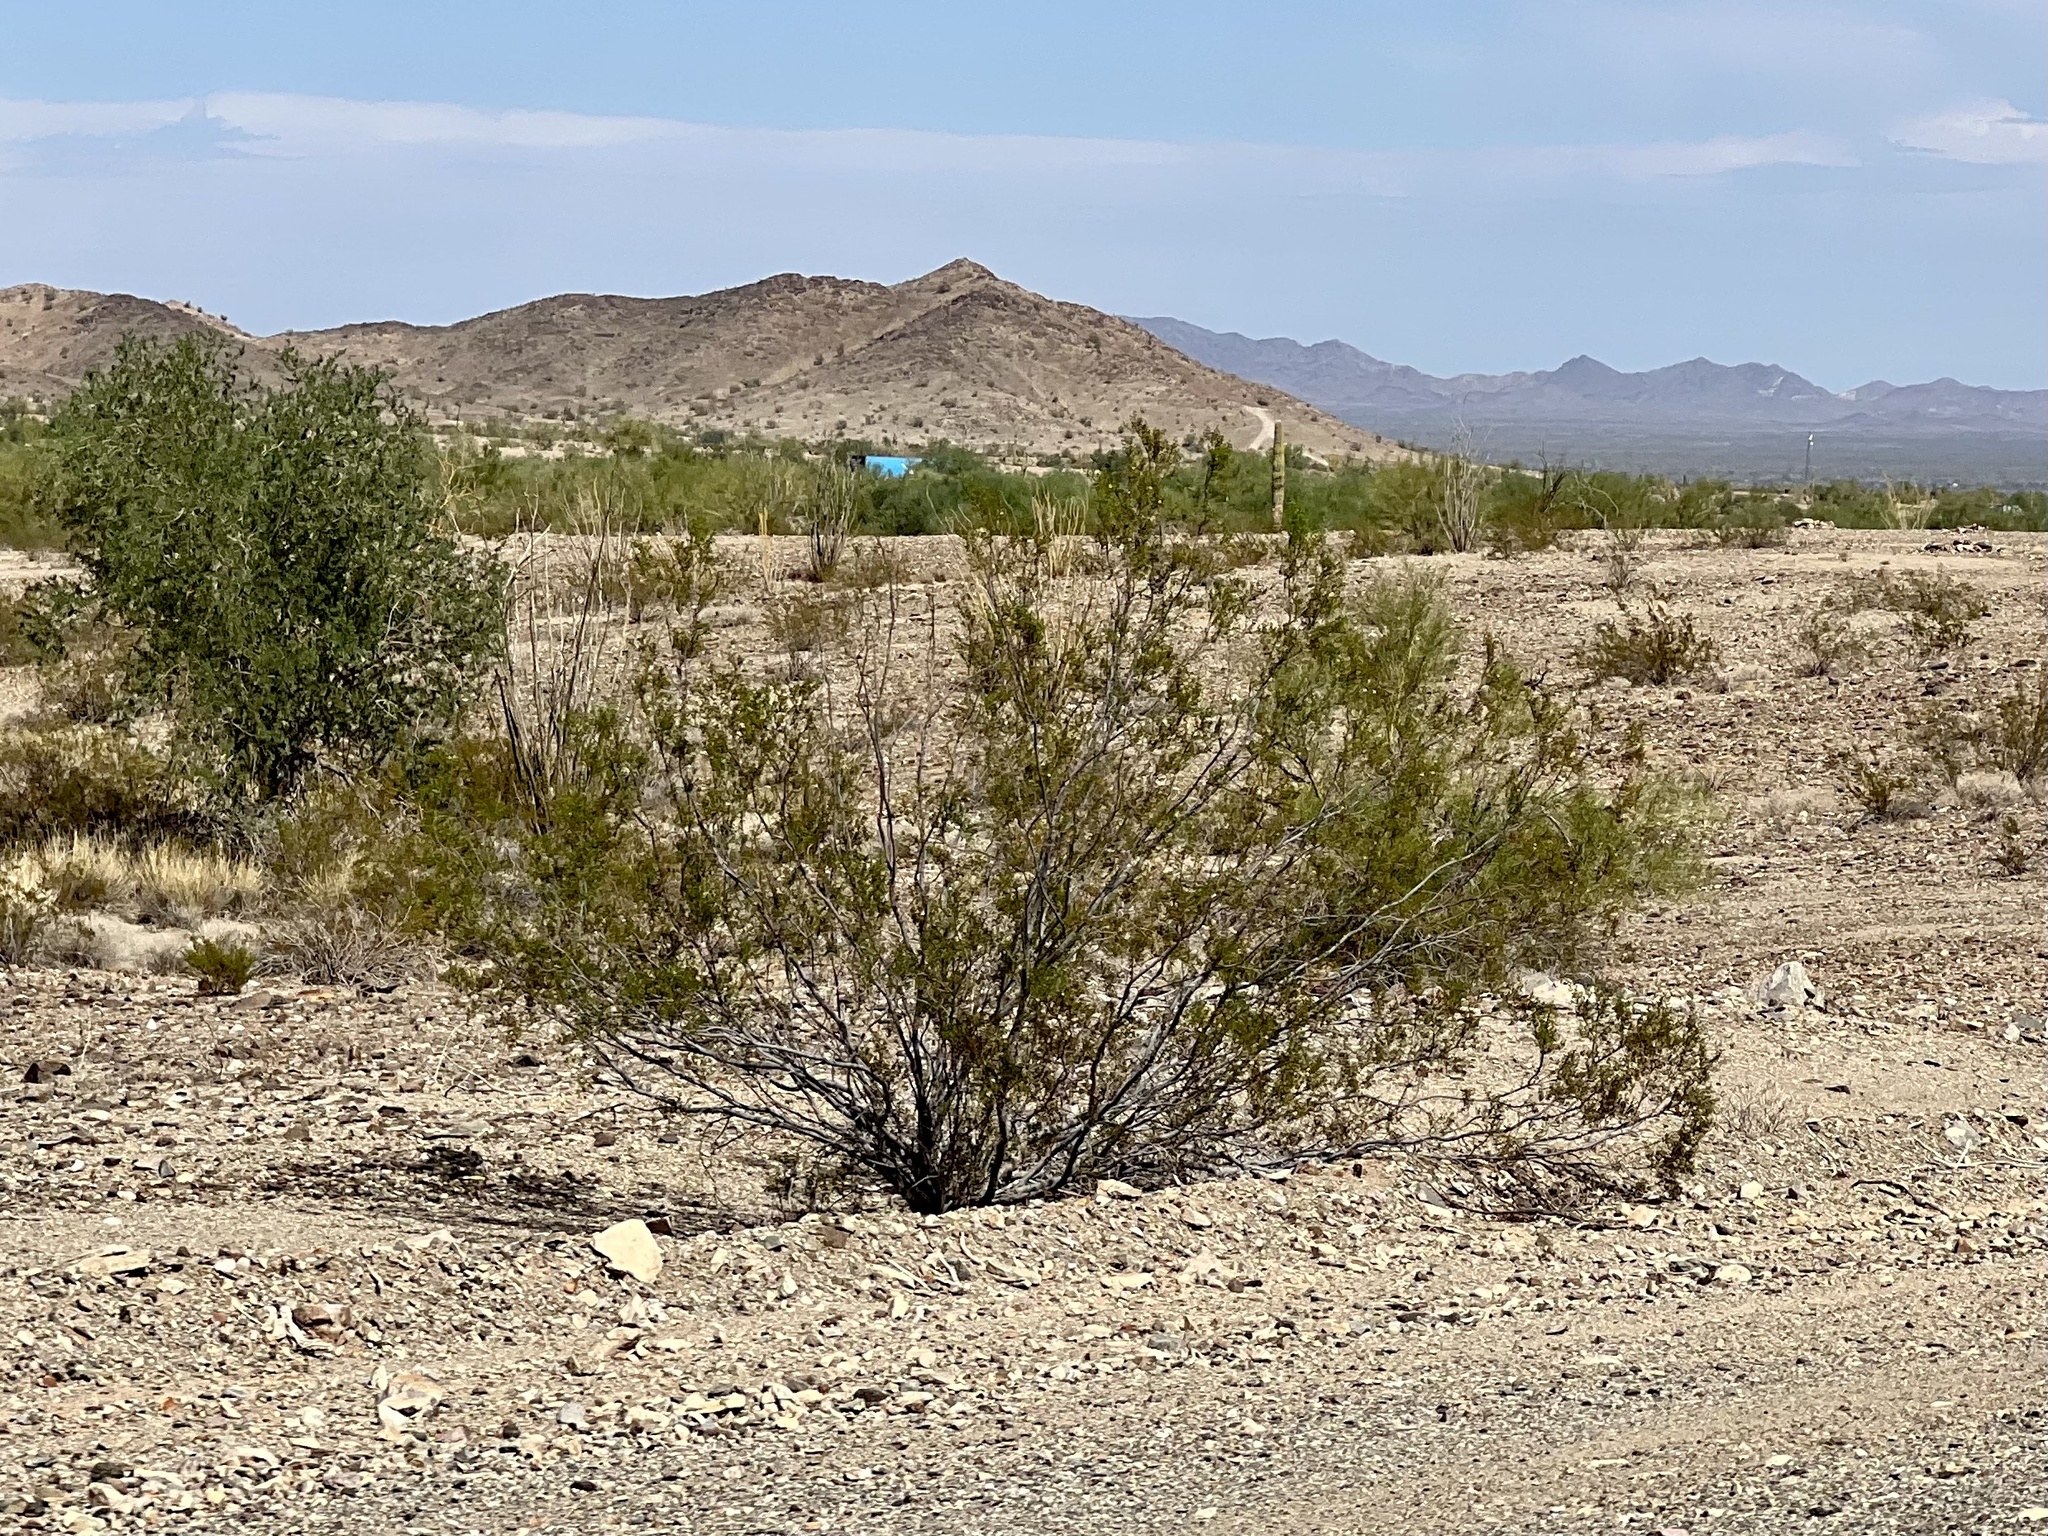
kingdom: Plantae
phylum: Tracheophyta
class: Magnoliopsida
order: Zygophyllales
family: Zygophyllaceae
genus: Larrea
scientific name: Larrea tridentata
